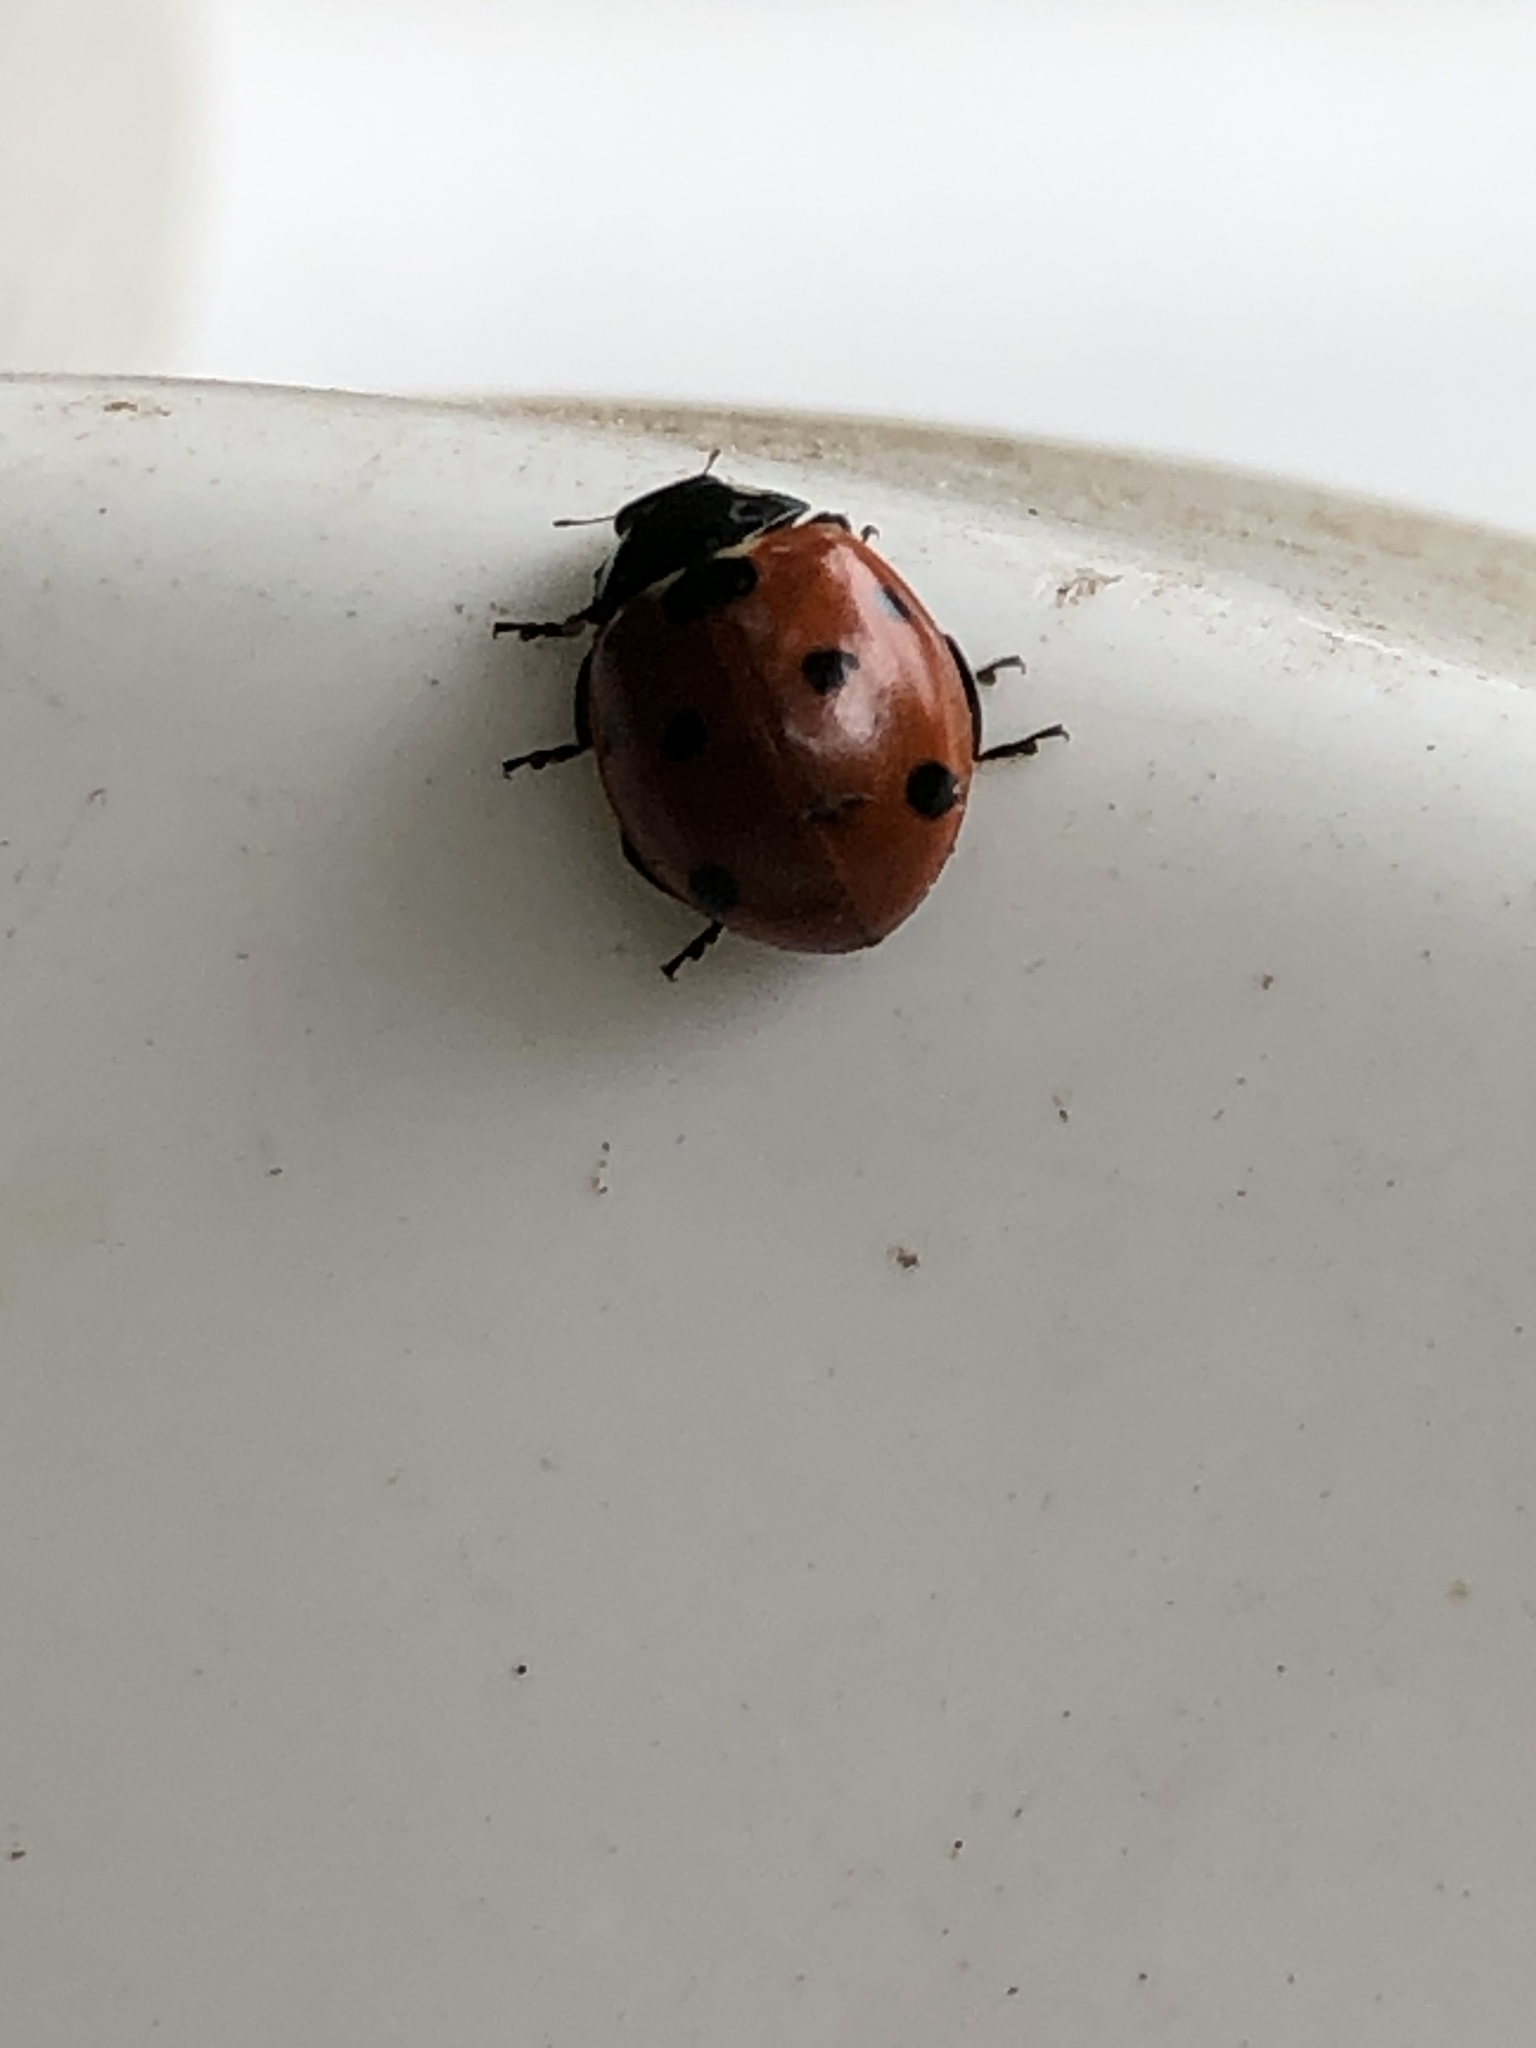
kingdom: Animalia
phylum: Arthropoda
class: Insecta
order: Coleoptera
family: Coccinellidae
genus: Coccinella
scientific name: Coccinella septempunctata
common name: Sevenspotted lady beetle
